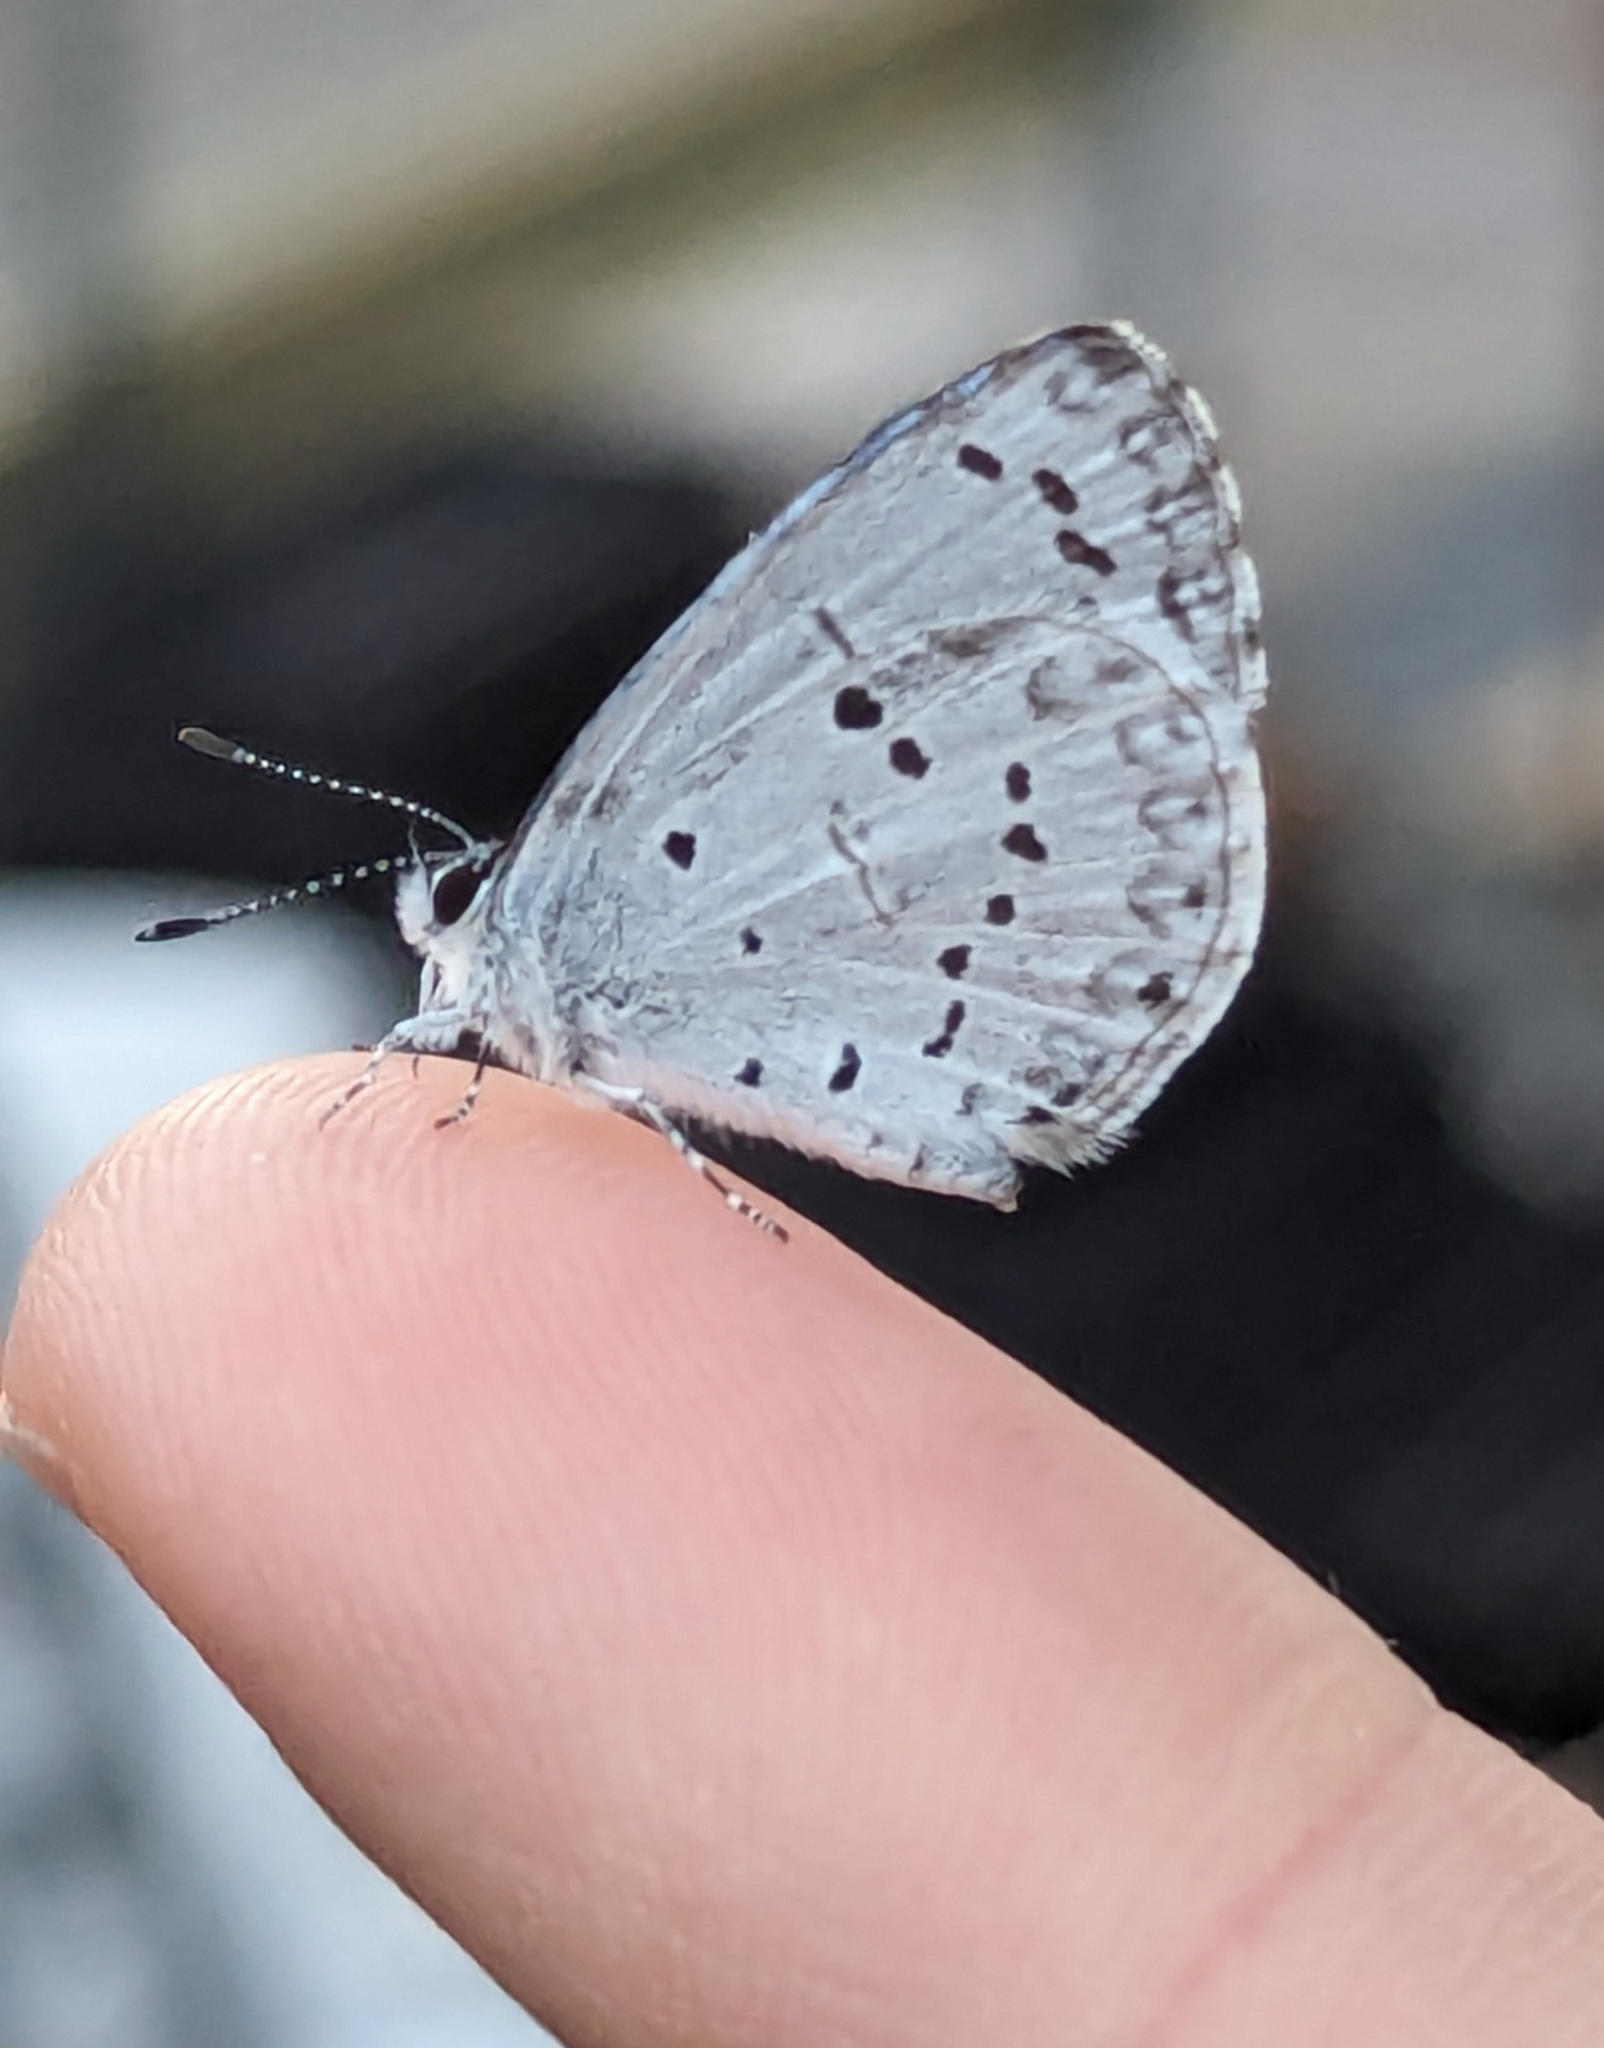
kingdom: Animalia
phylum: Arthropoda
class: Insecta
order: Lepidoptera
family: Lycaenidae
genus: Cyaniris
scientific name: Cyaniris neglecta
